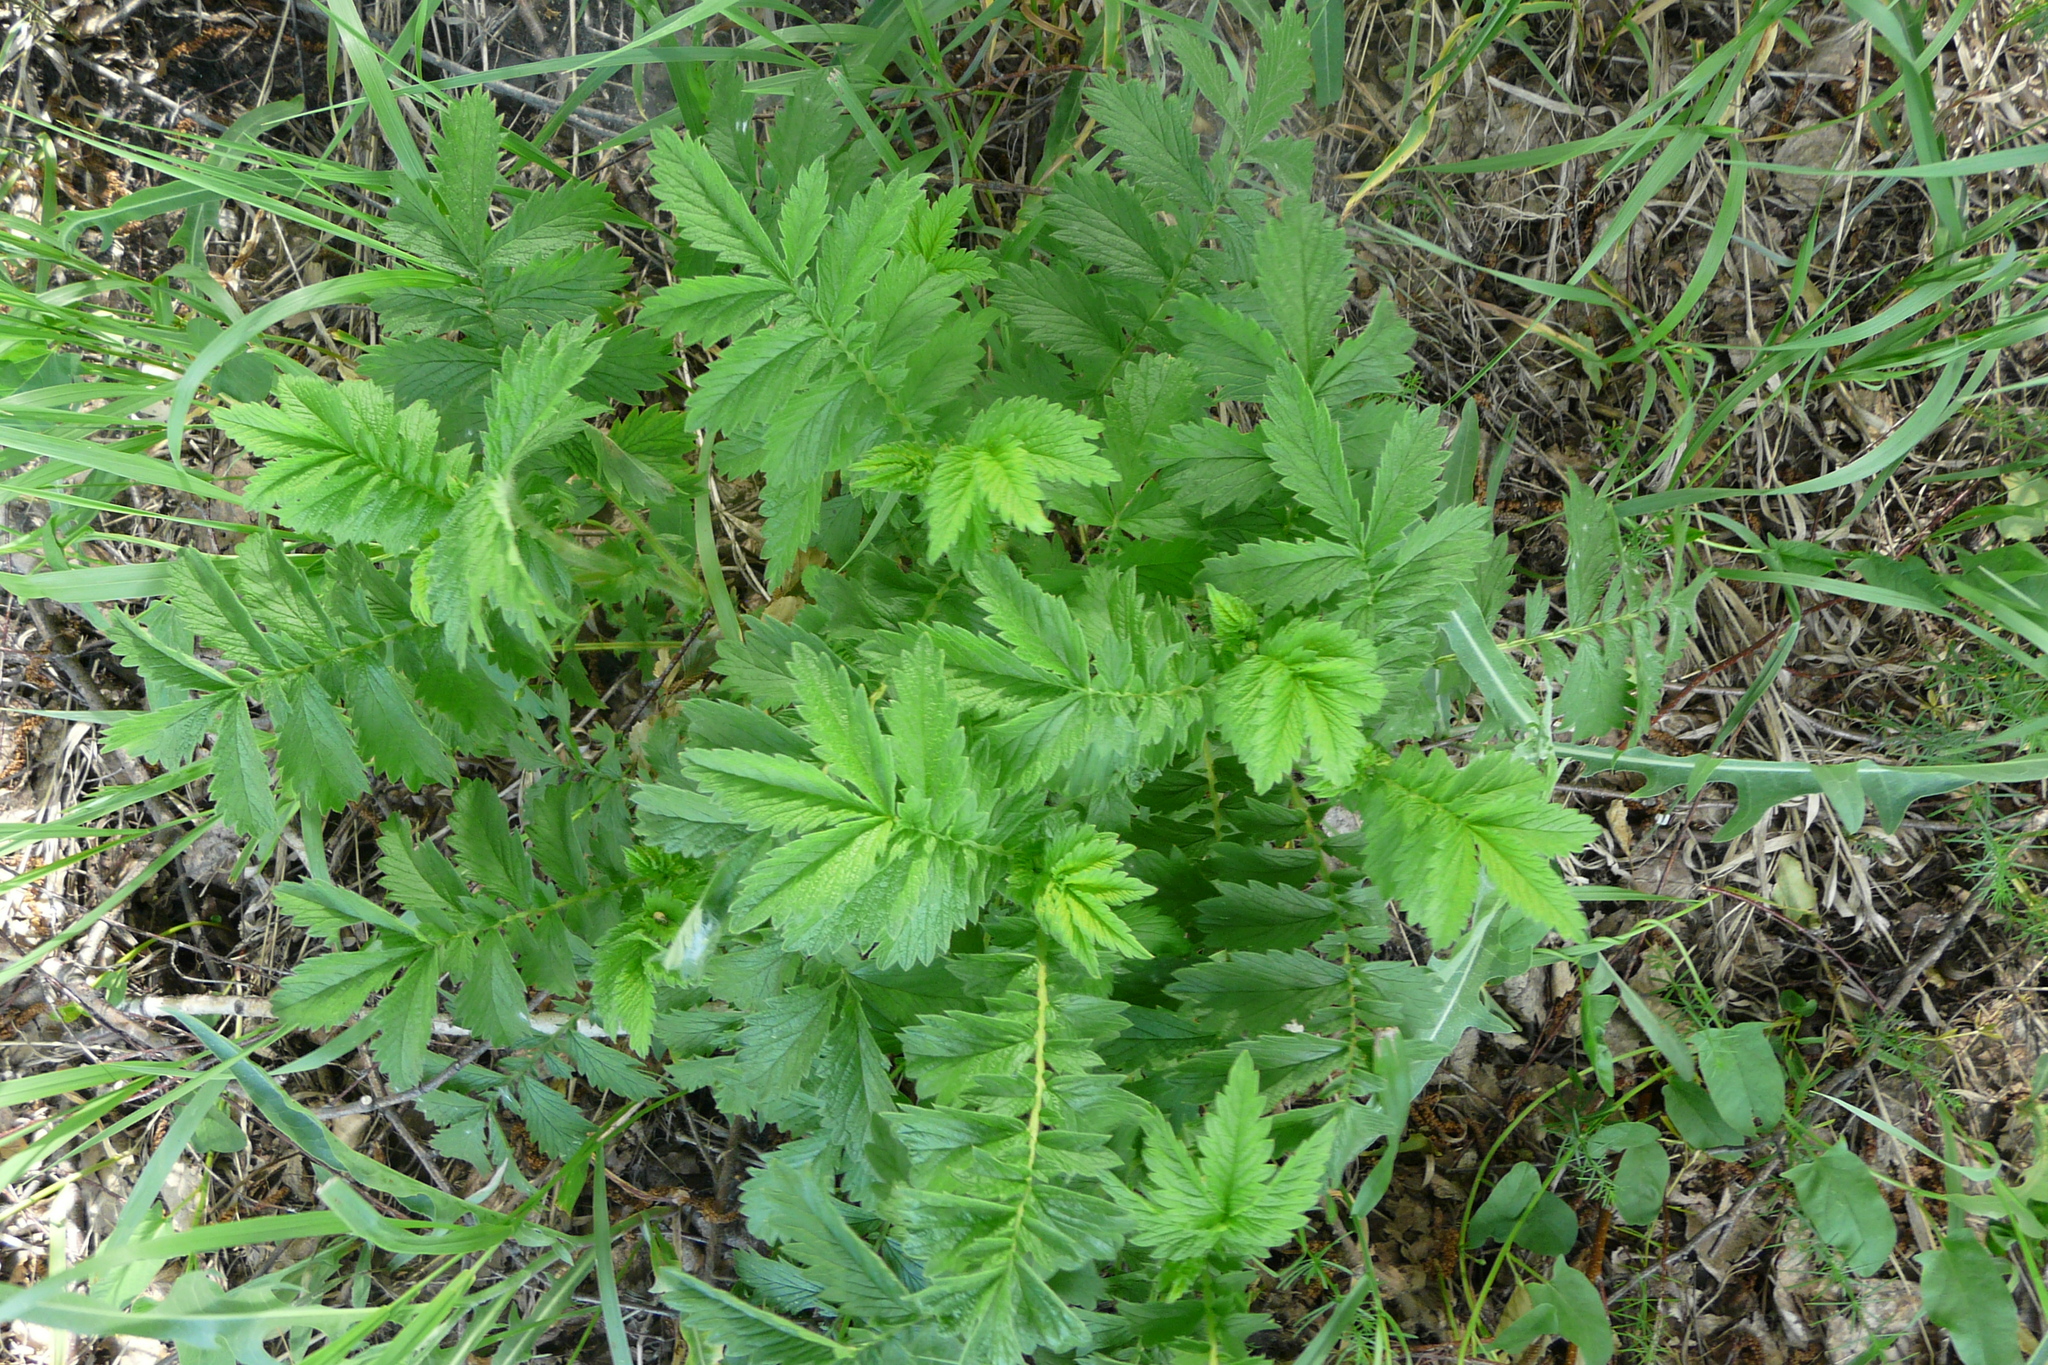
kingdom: Plantae
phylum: Tracheophyta
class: Magnoliopsida
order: Rosales
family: Rosaceae
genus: Agrimonia
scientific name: Agrimonia eupatoria
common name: Agrimony
